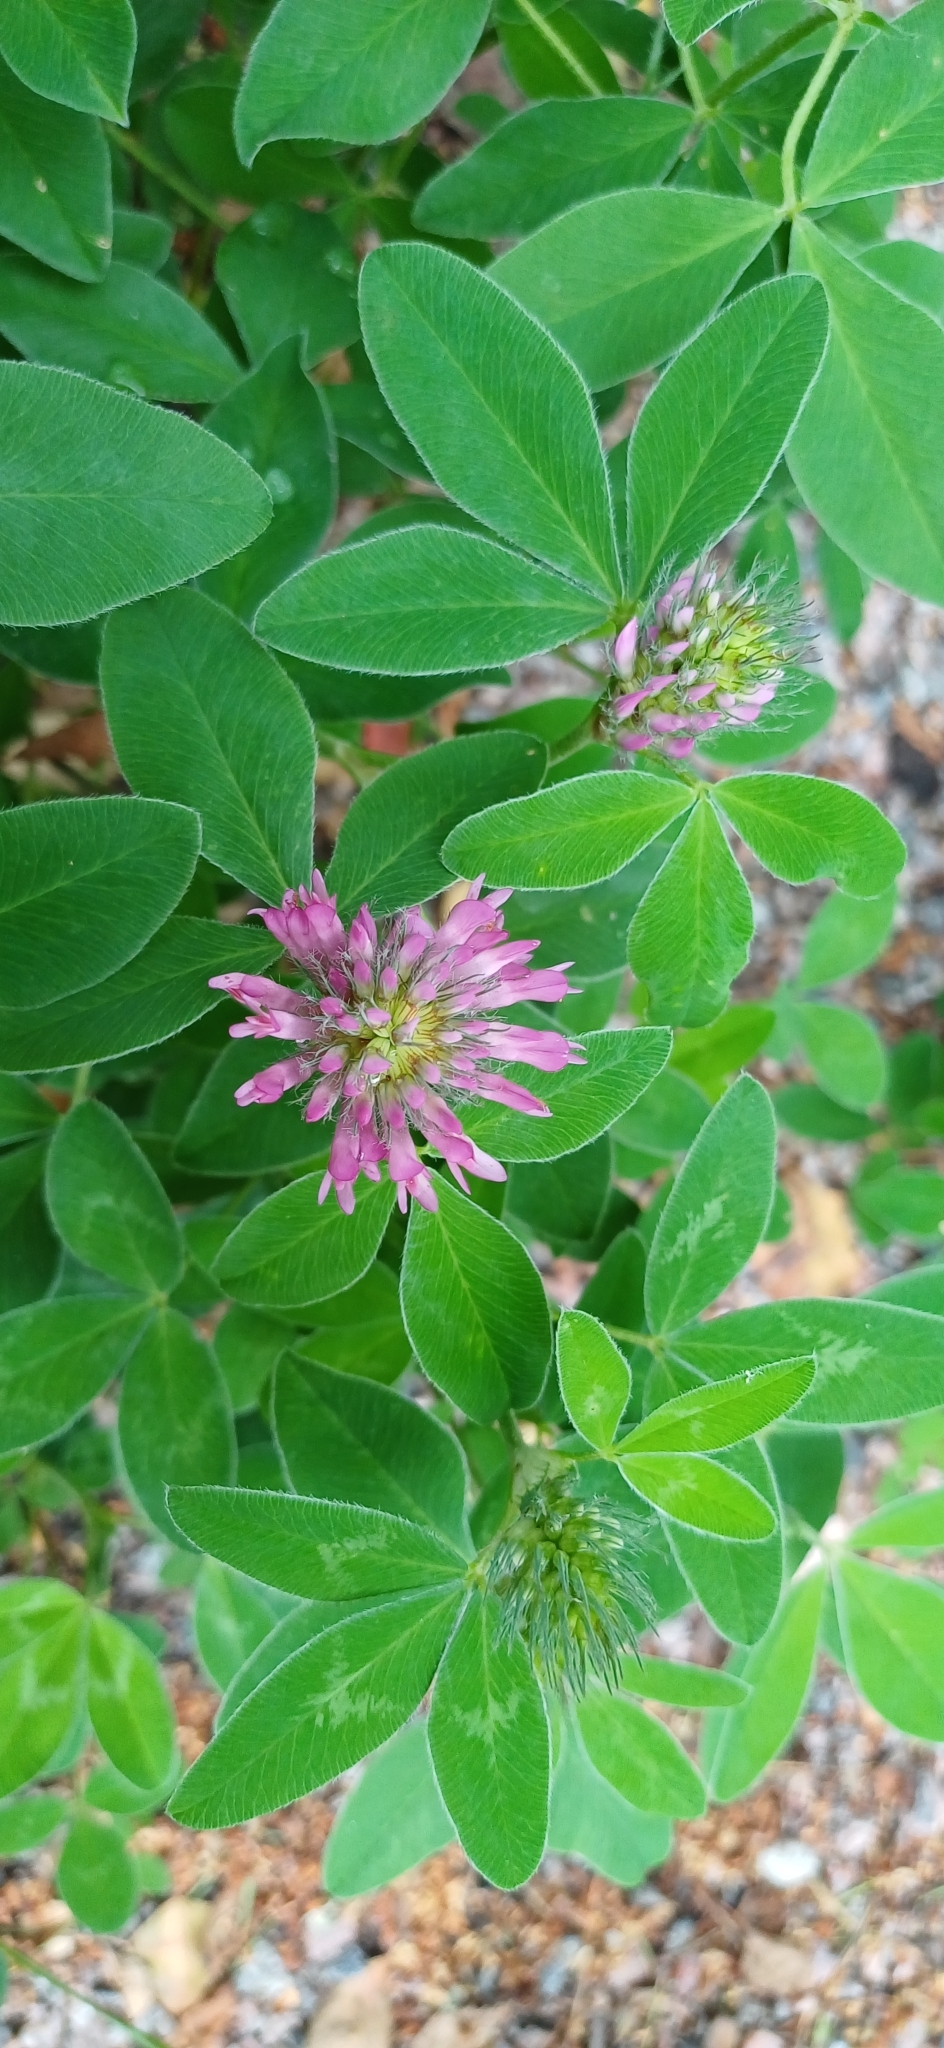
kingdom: Plantae
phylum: Tracheophyta
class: Magnoliopsida
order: Fabales
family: Fabaceae
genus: Trifolium
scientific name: Trifolium medium
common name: Zigzag clover
